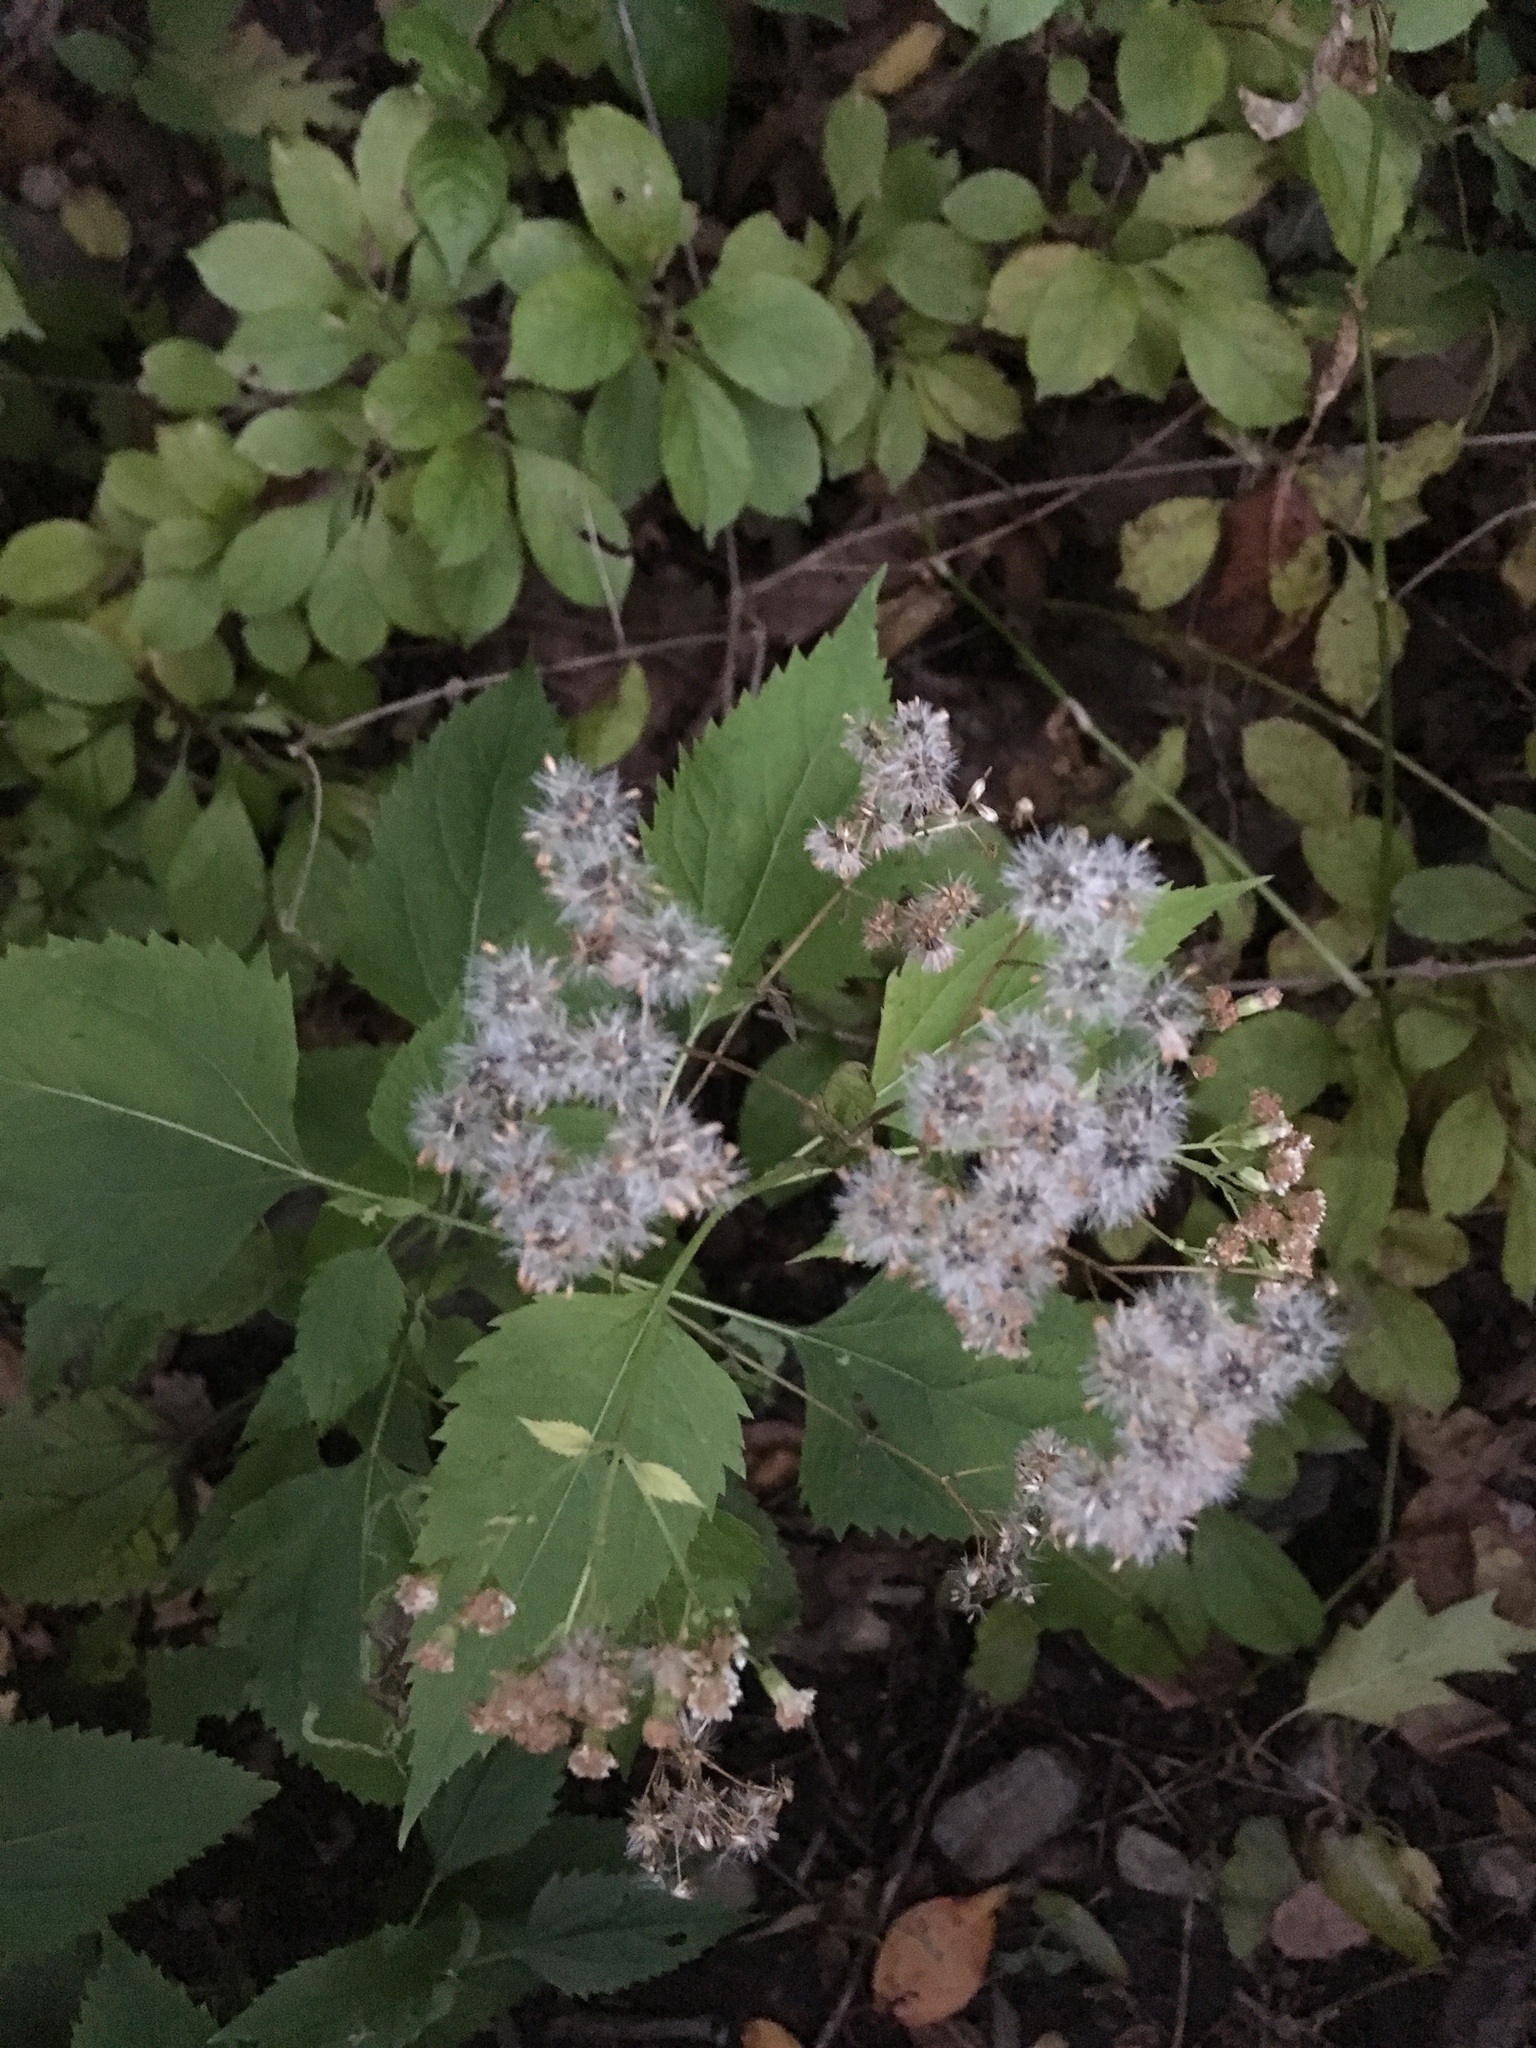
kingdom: Plantae
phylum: Tracheophyta
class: Magnoliopsida
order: Asterales
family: Asteraceae
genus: Ageratina
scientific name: Ageratina altissima
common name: White snakeroot
